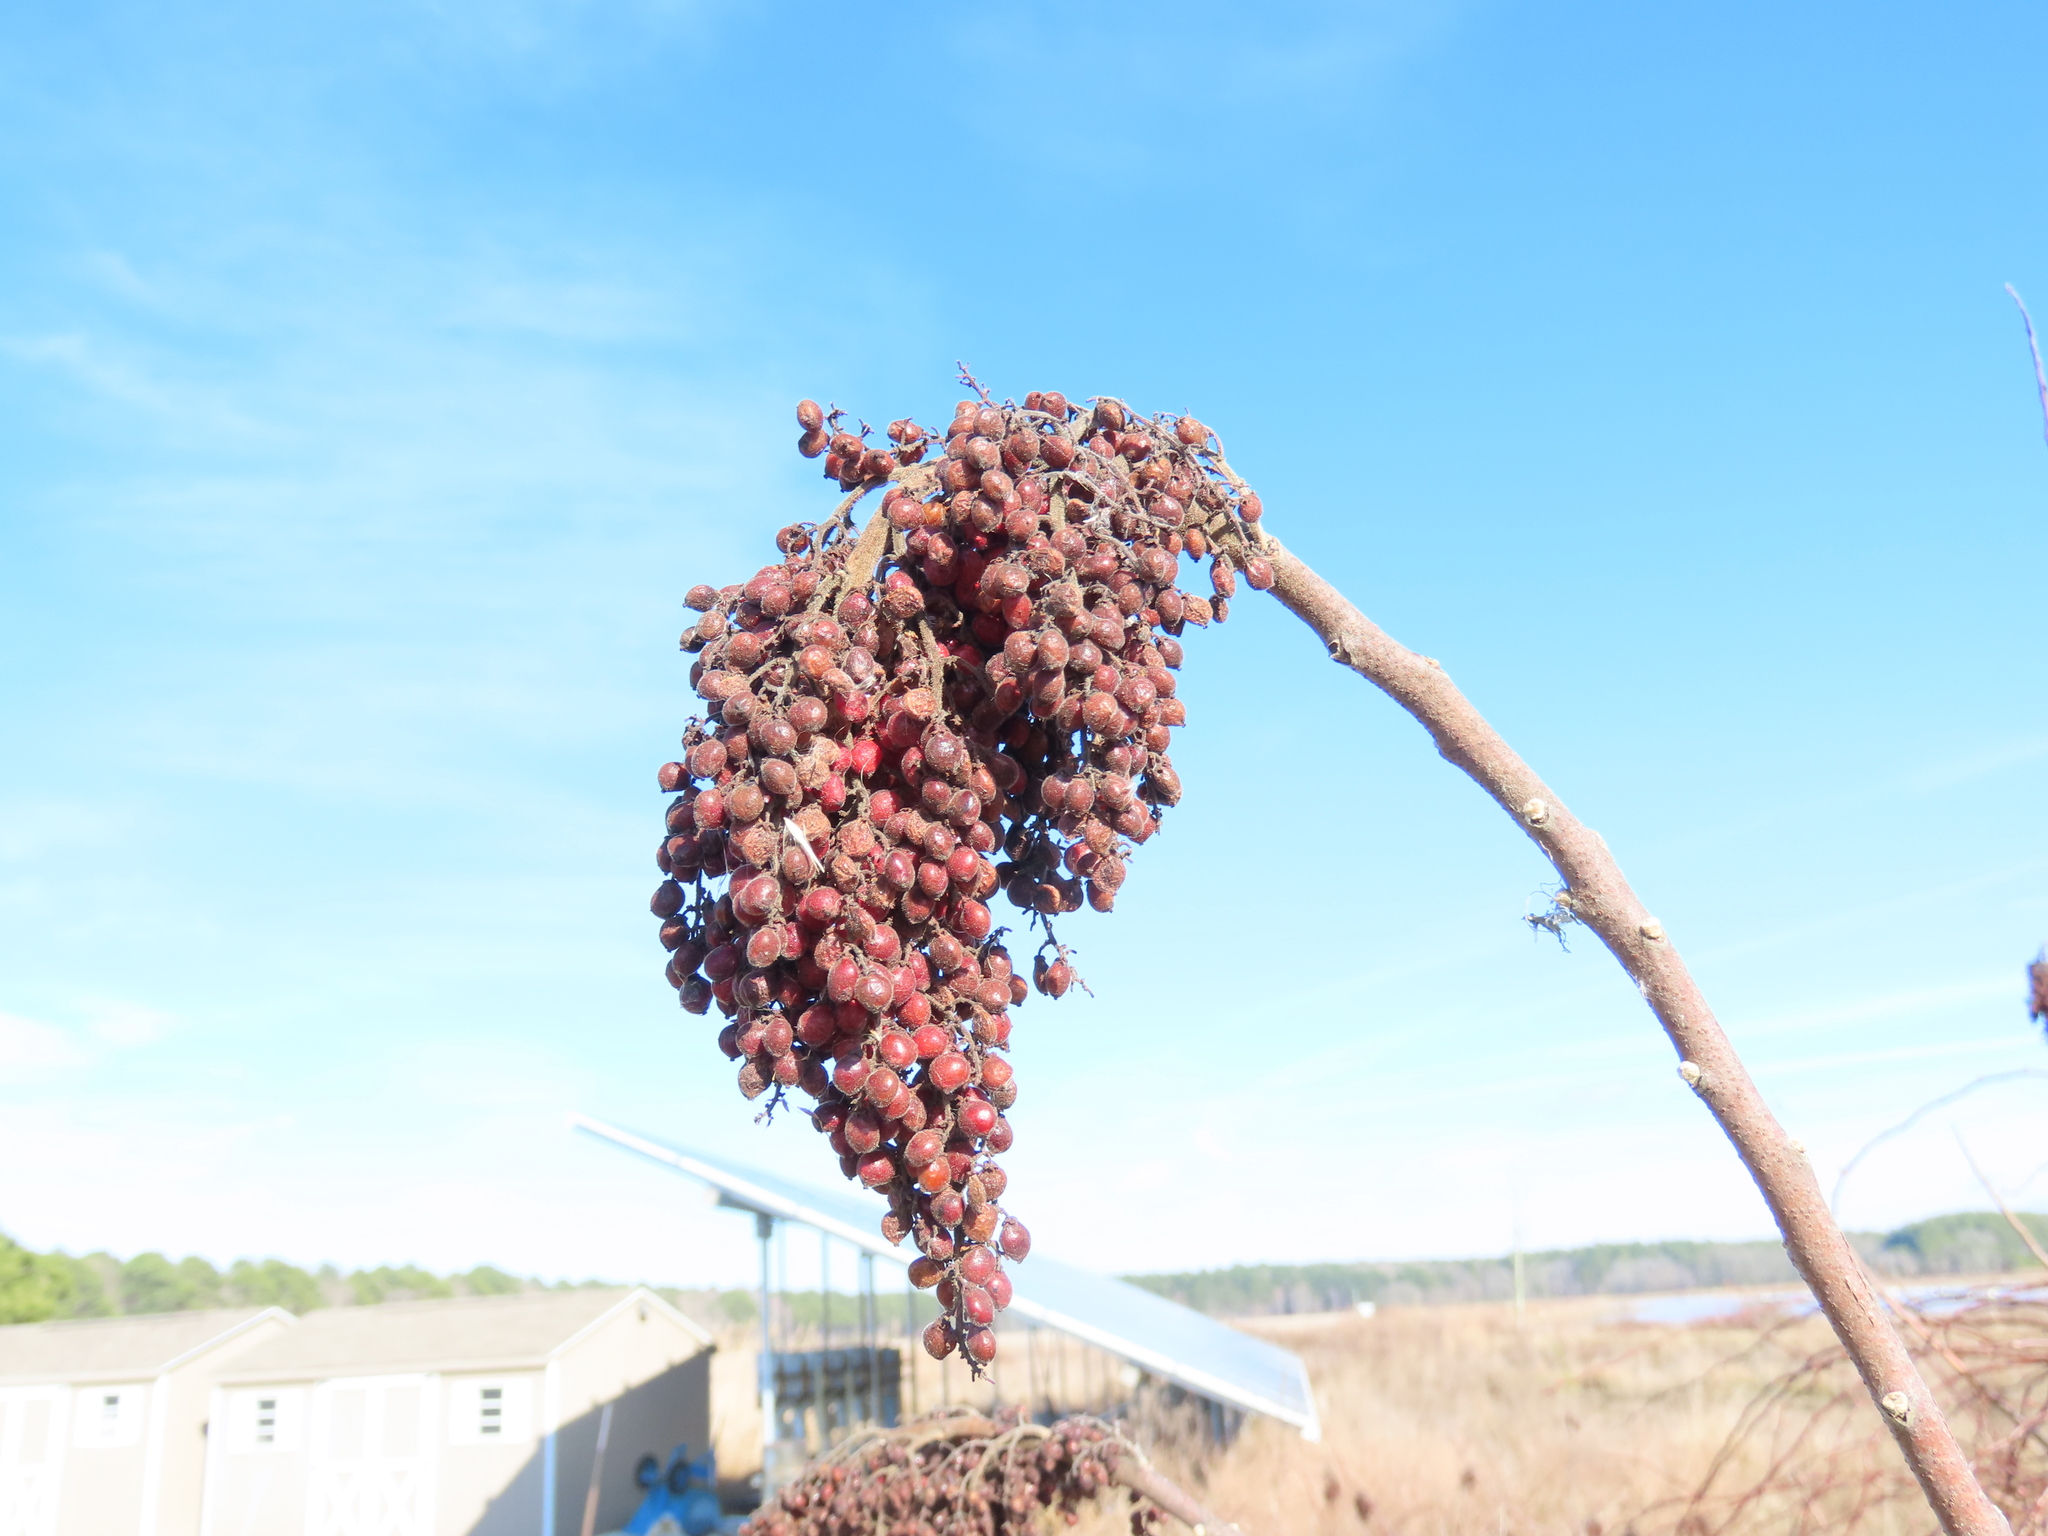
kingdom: Plantae
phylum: Tracheophyta
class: Magnoliopsida
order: Sapindales
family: Anacardiaceae
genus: Rhus
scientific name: Rhus copallina
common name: Shining sumac
